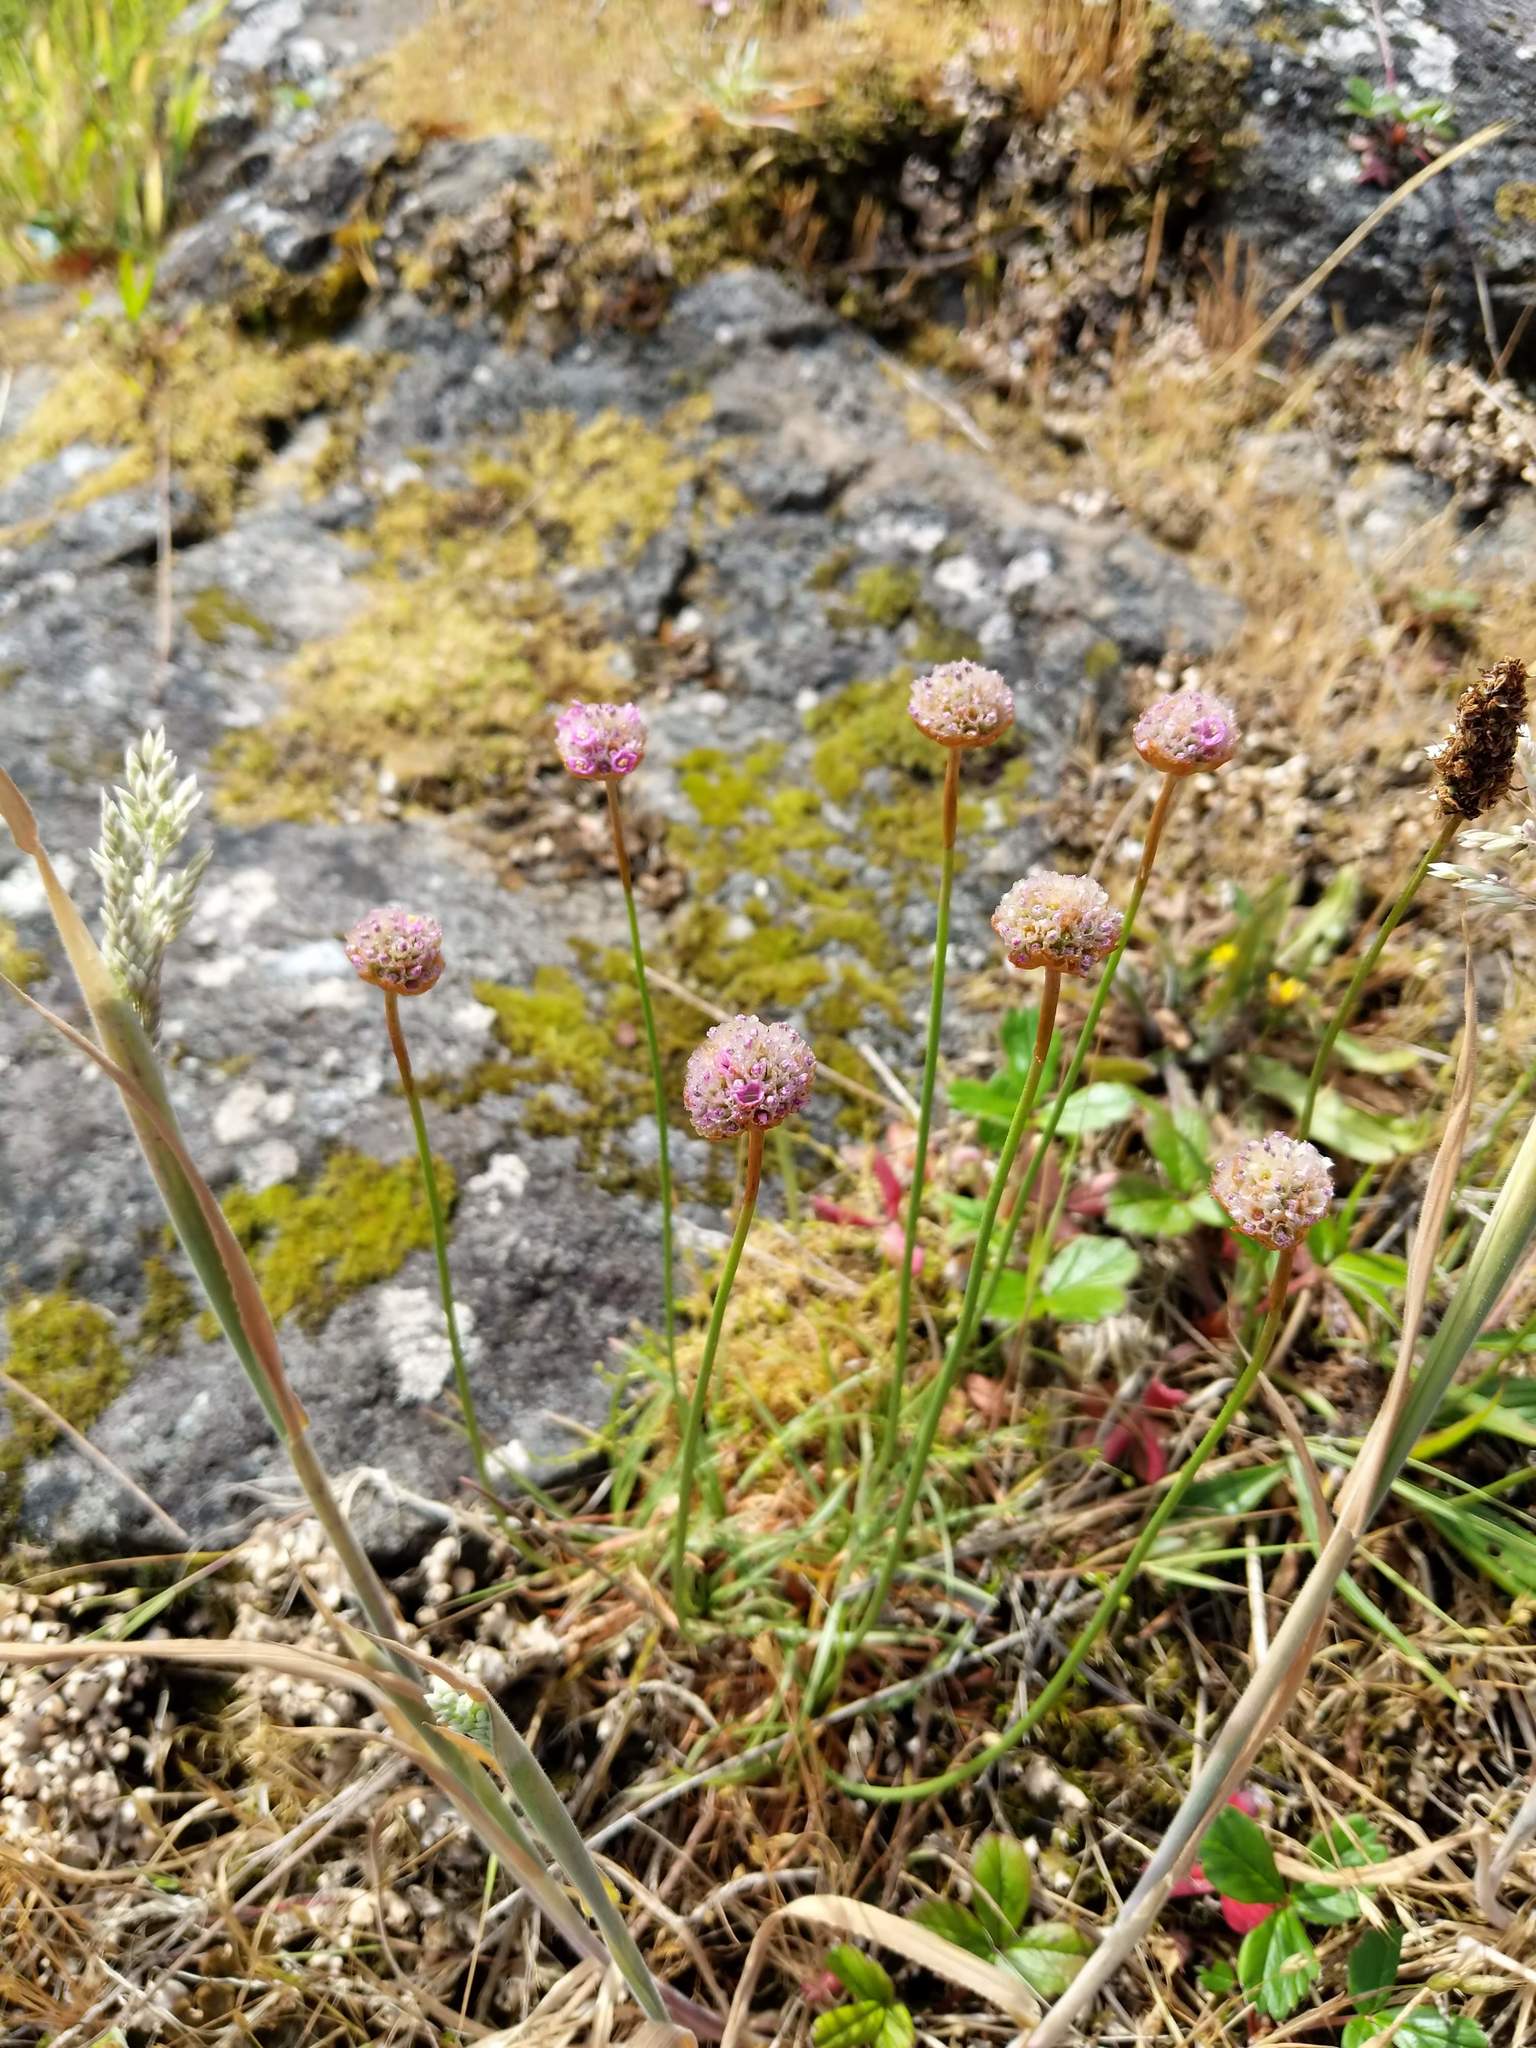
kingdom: Plantae
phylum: Tracheophyta
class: Magnoliopsida
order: Caryophyllales
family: Plumbaginaceae
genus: Armeria
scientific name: Armeria maritima
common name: Thrift
